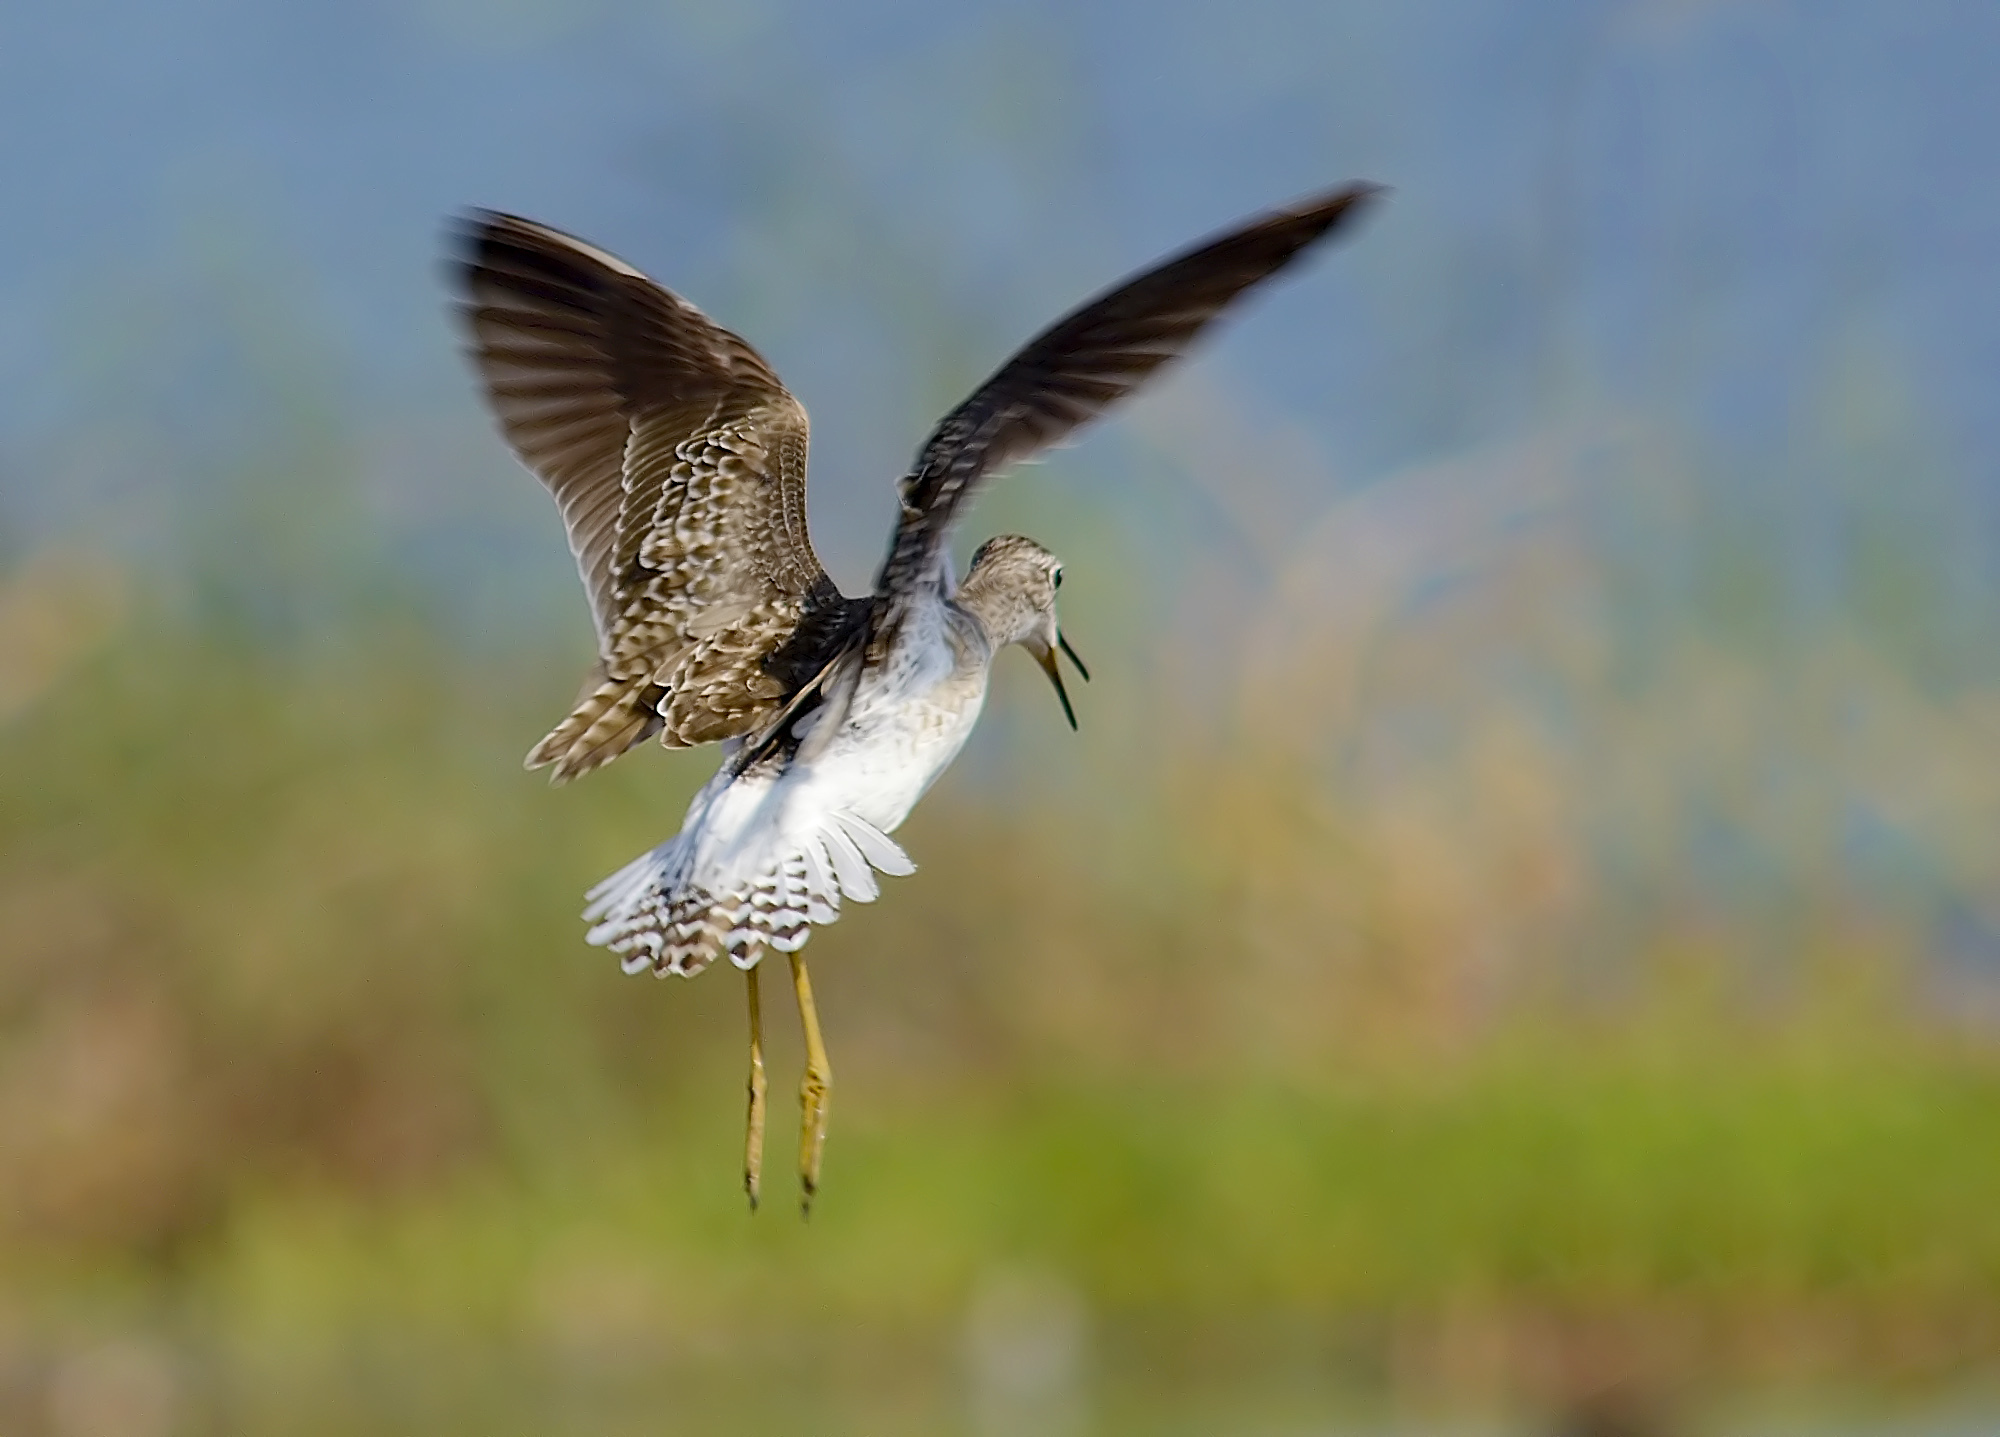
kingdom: Animalia
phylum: Chordata
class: Aves
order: Charadriiformes
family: Scolopacidae
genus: Tringa
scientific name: Tringa glareola
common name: Wood sandpiper
